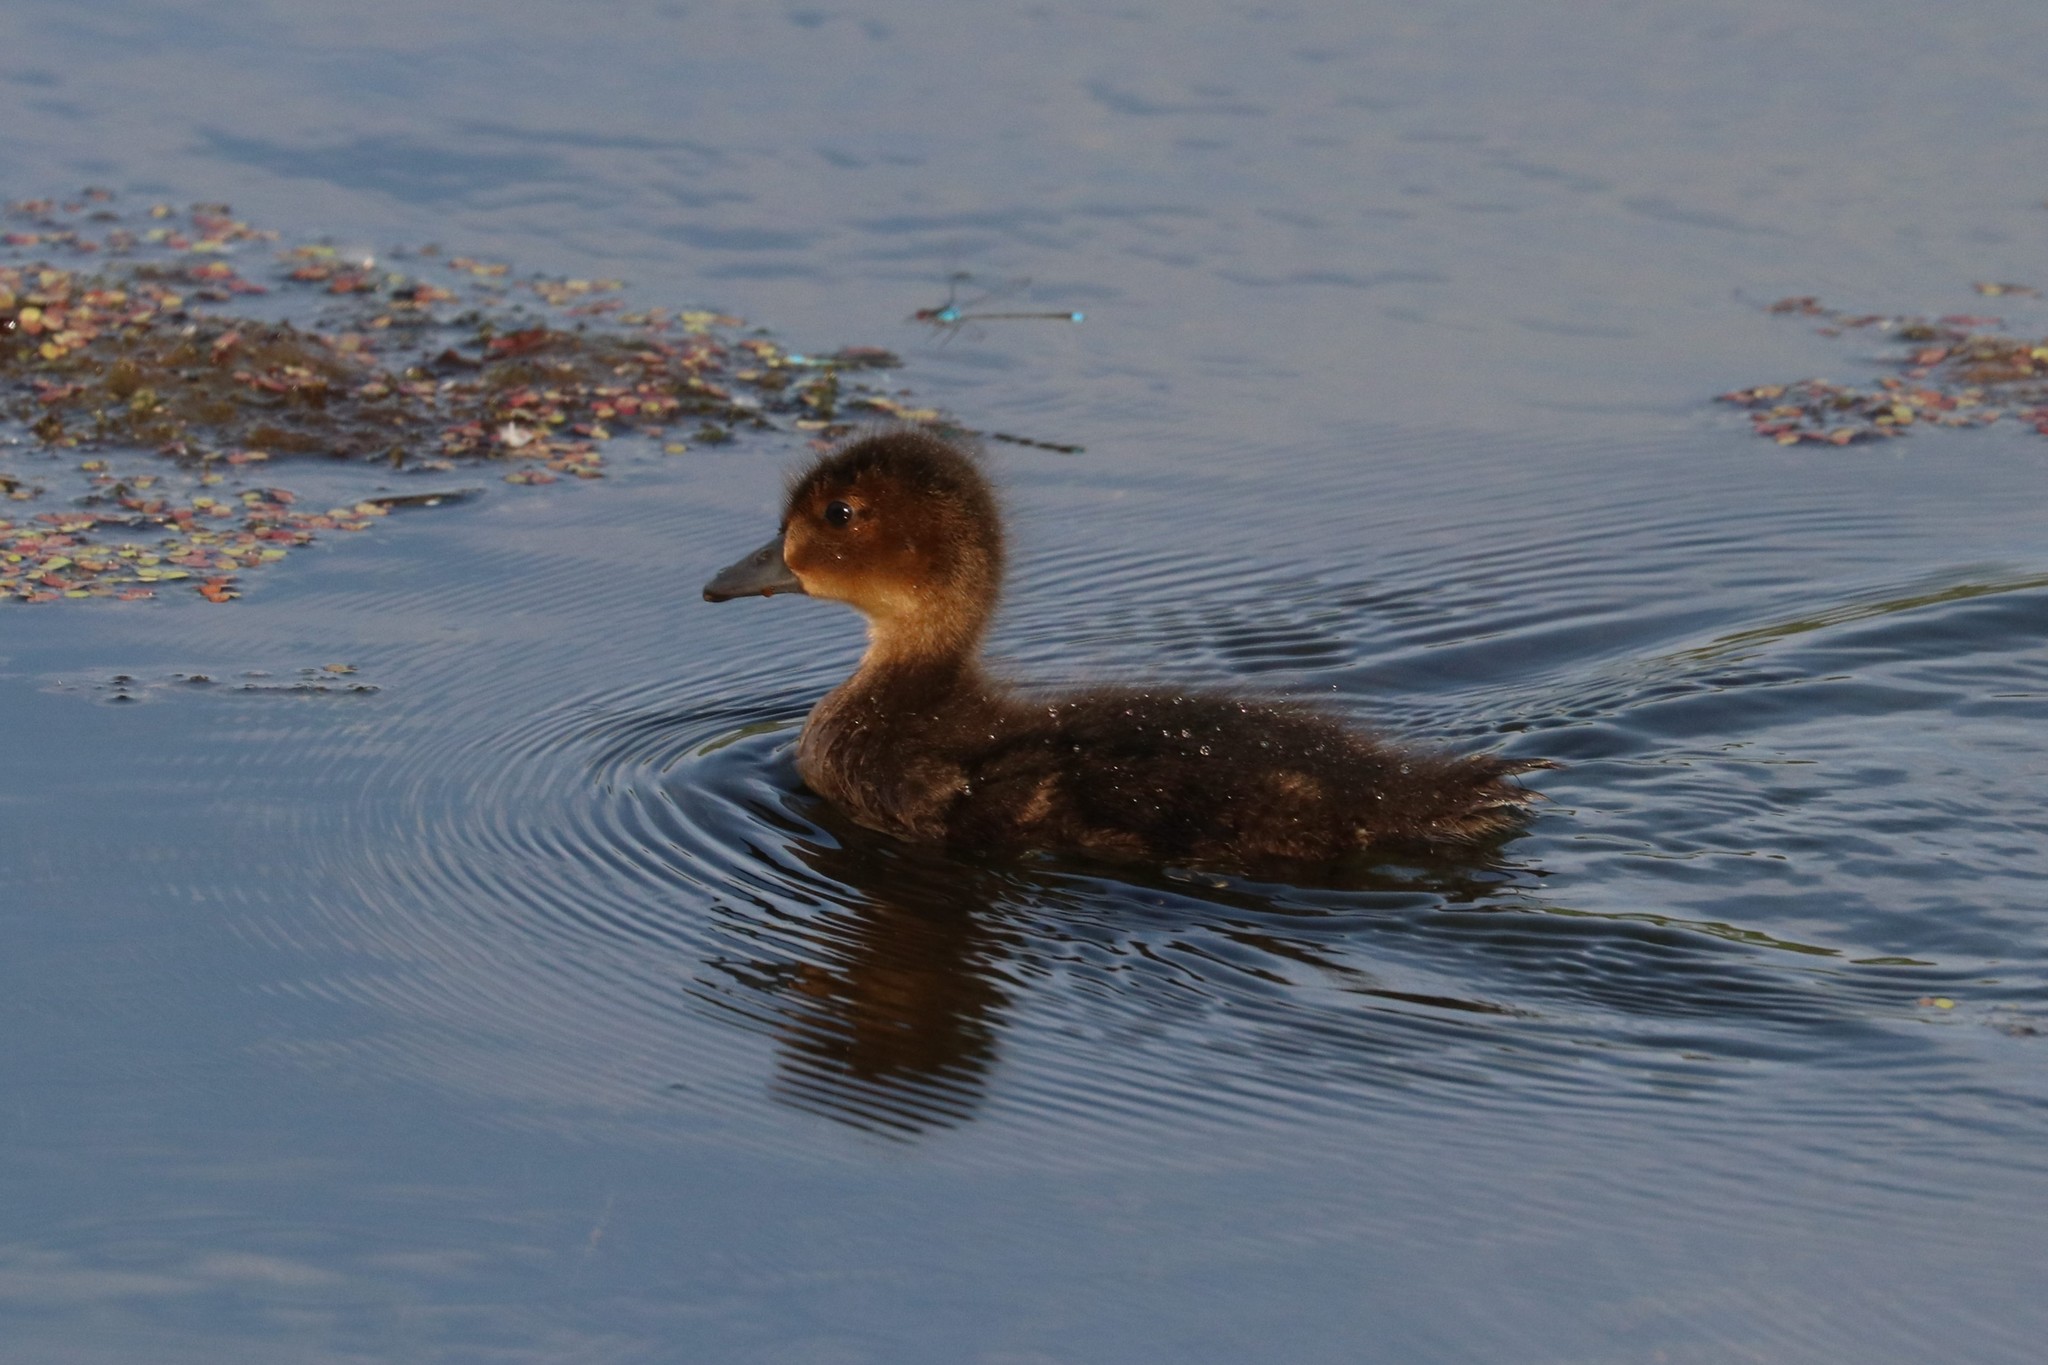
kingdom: Animalia
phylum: Chordata
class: Aves
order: Anseriformes
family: Anatidae
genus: Mareca
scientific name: Mareca penelope
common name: Eurasian wigeon
